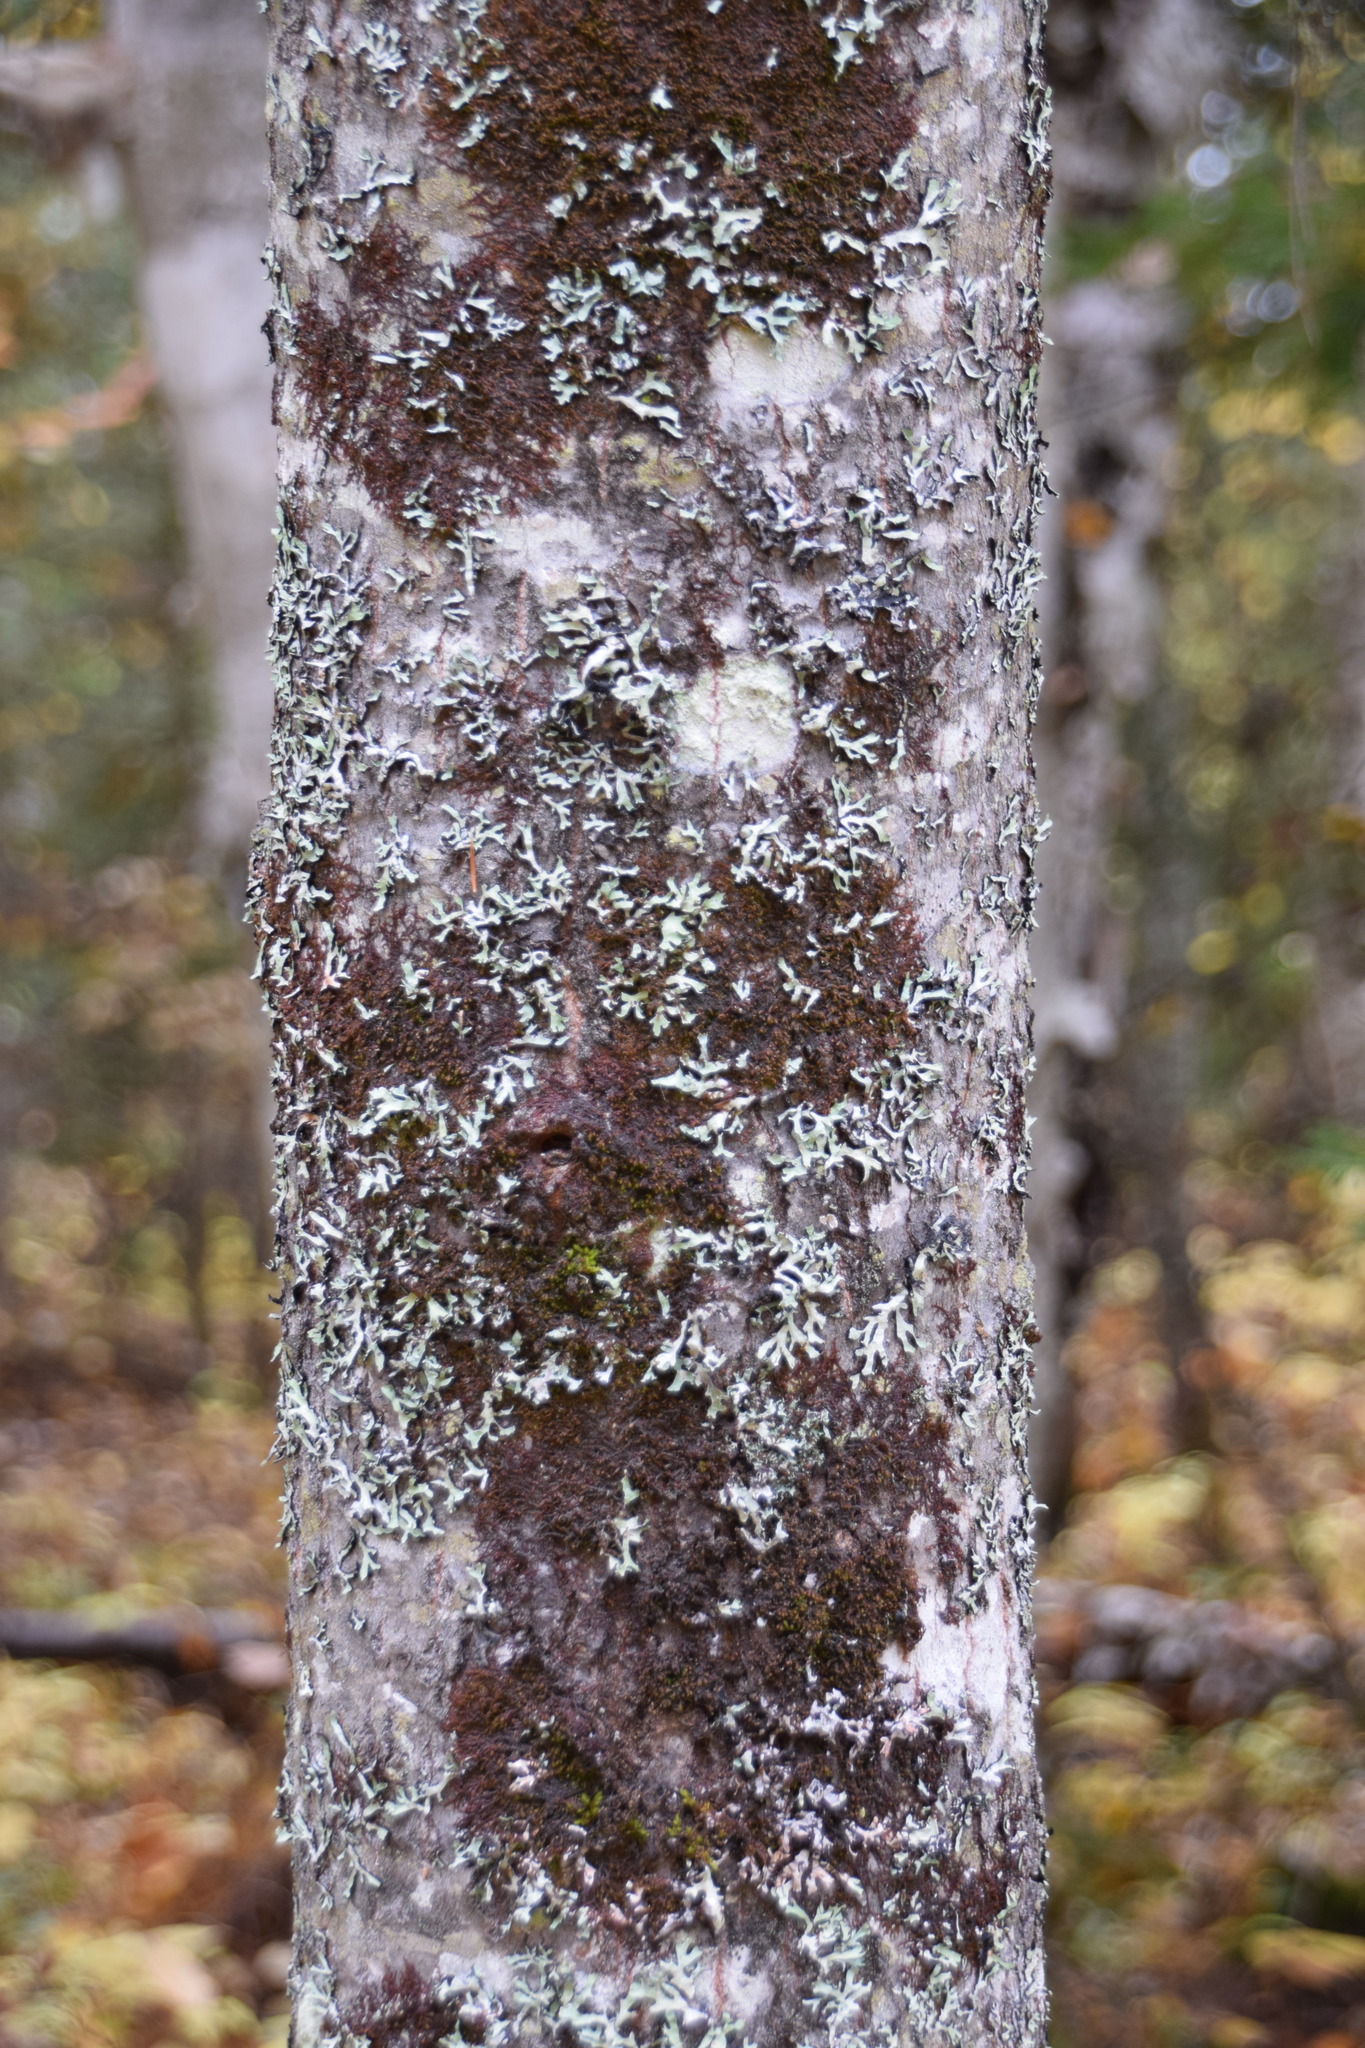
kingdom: Plantae
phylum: Tracheophyta
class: Magnoliopsida
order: Malpighiales
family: Salicaceae
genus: Populus
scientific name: Populus grandidentata
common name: Bigtooth aspen
